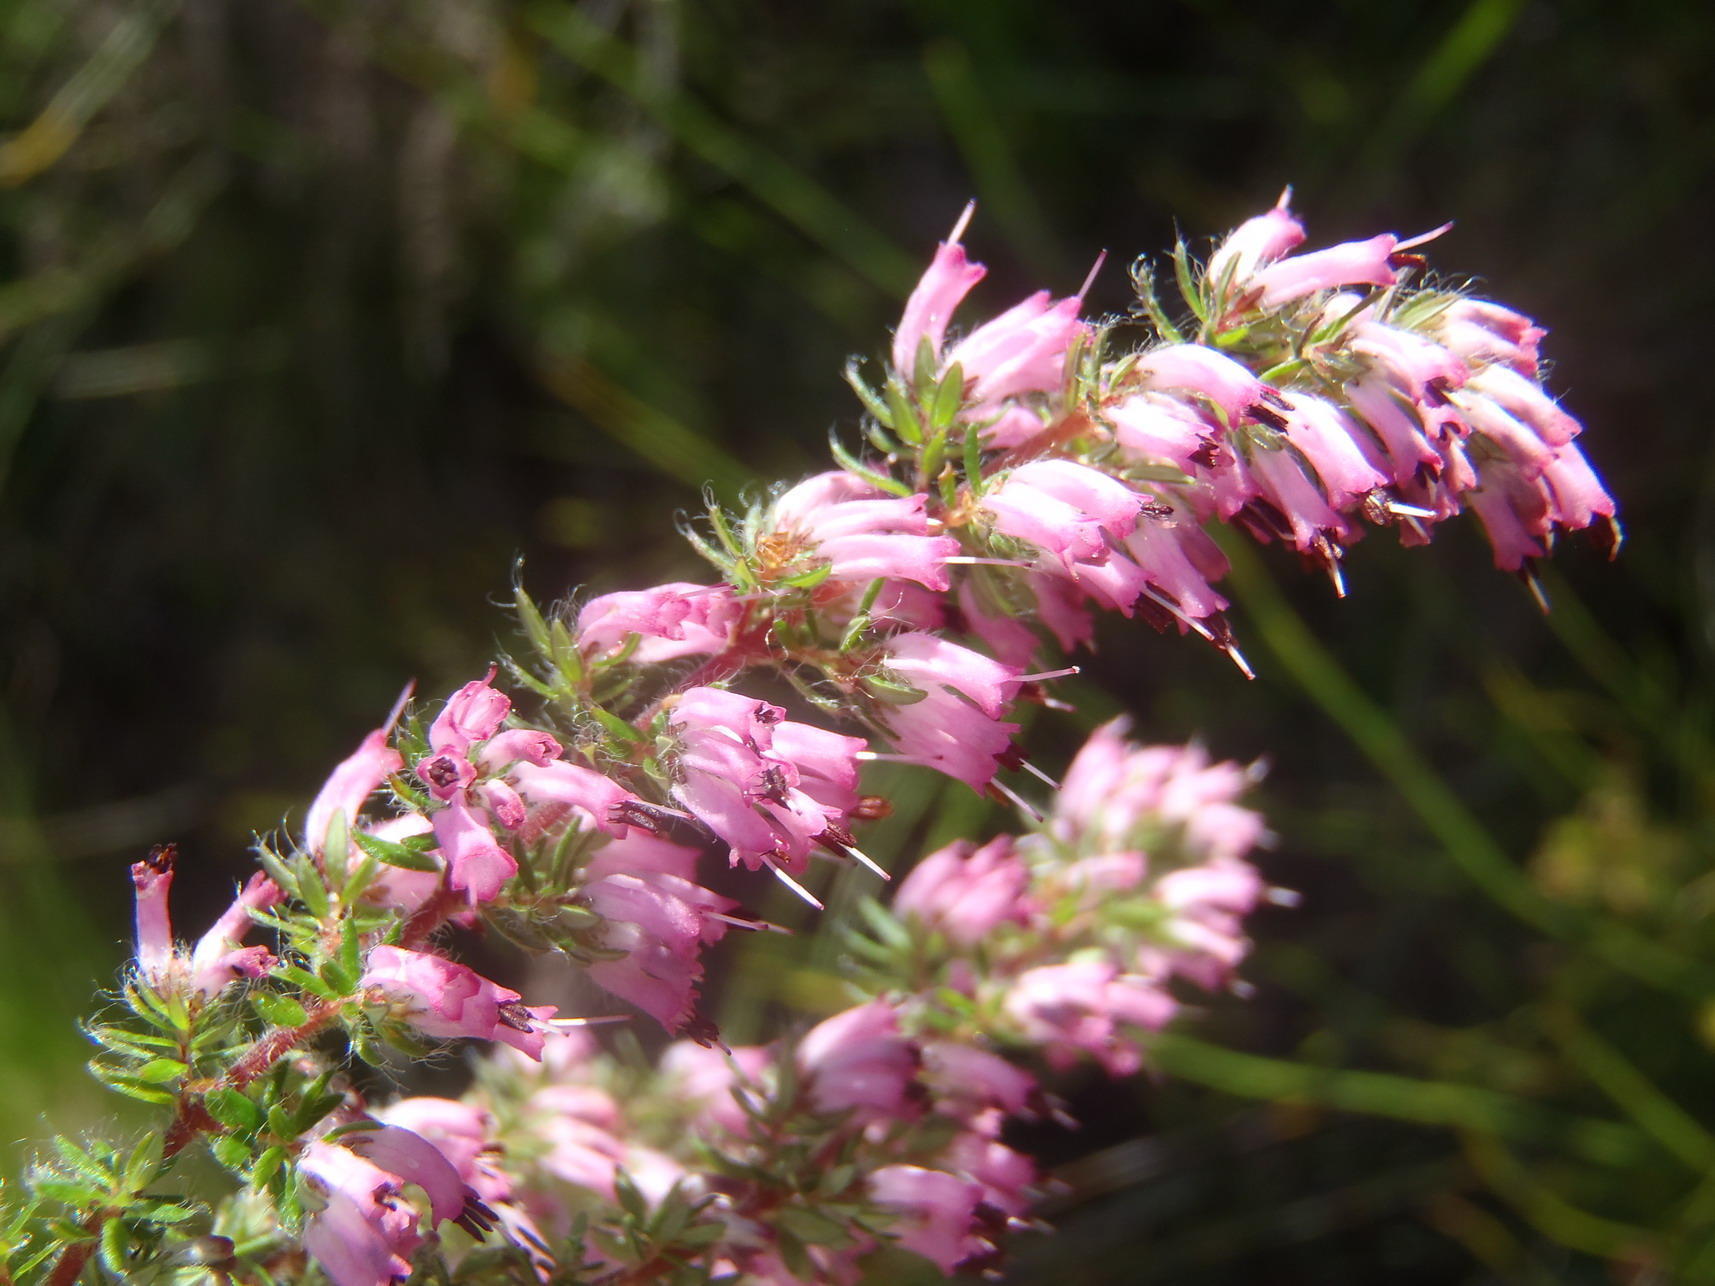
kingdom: Plantae
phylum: Tracheophyta
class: Magnoliopsida
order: Ericales
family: Ericaceae
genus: Erica
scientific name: Erica longimontana
